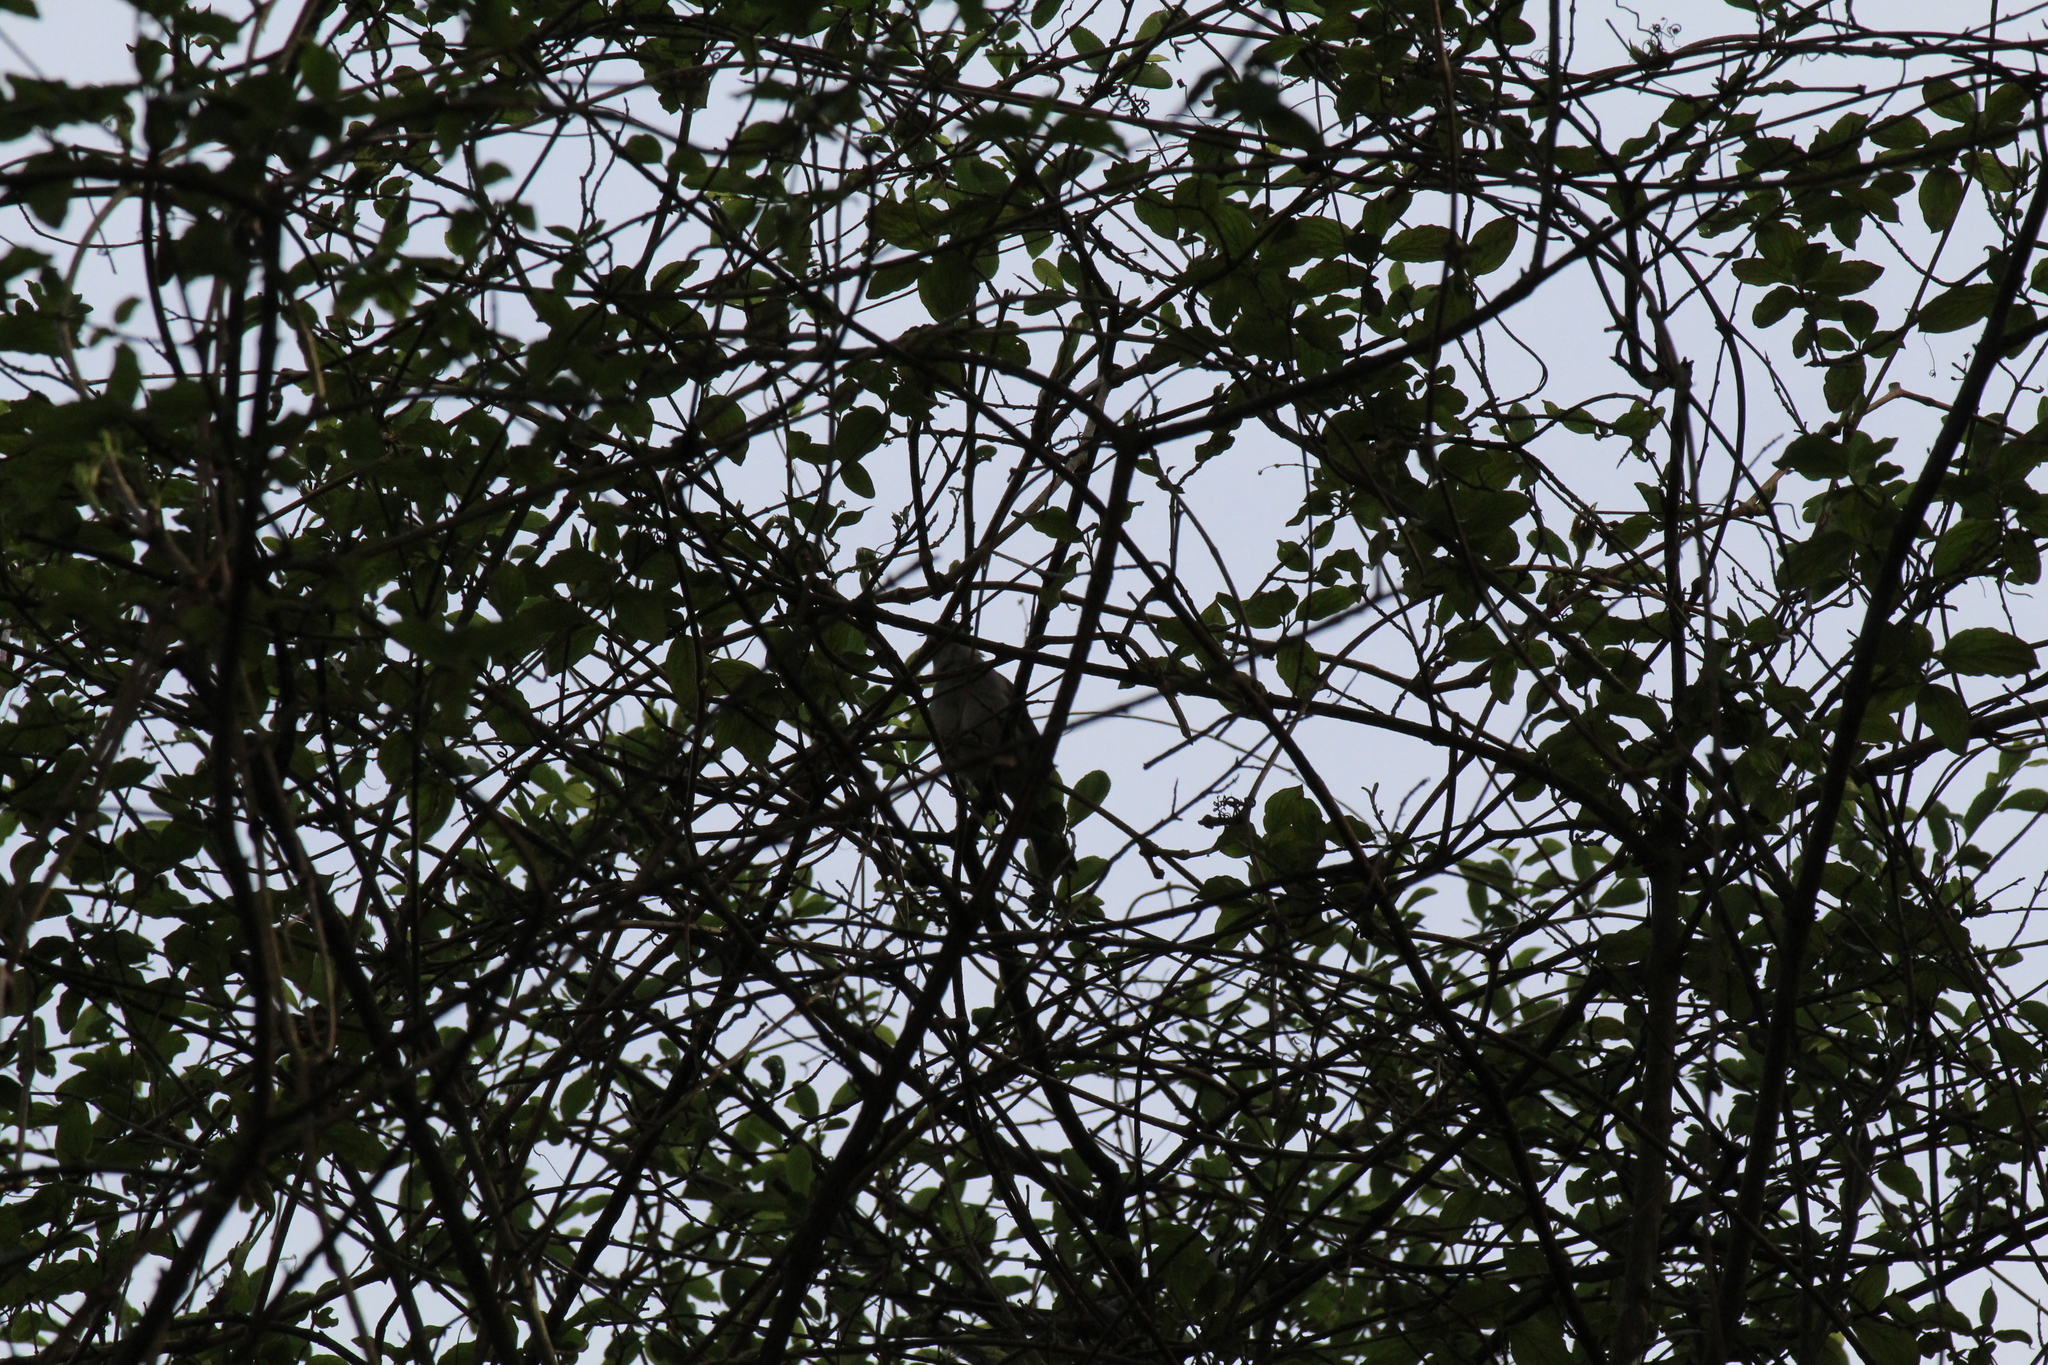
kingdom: Animalia
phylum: Chordata
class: Aves
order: Passeriformes
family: Sylviidae
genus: Sylvia
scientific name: Sylvia atricapilla
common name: Eurasian blackcap
